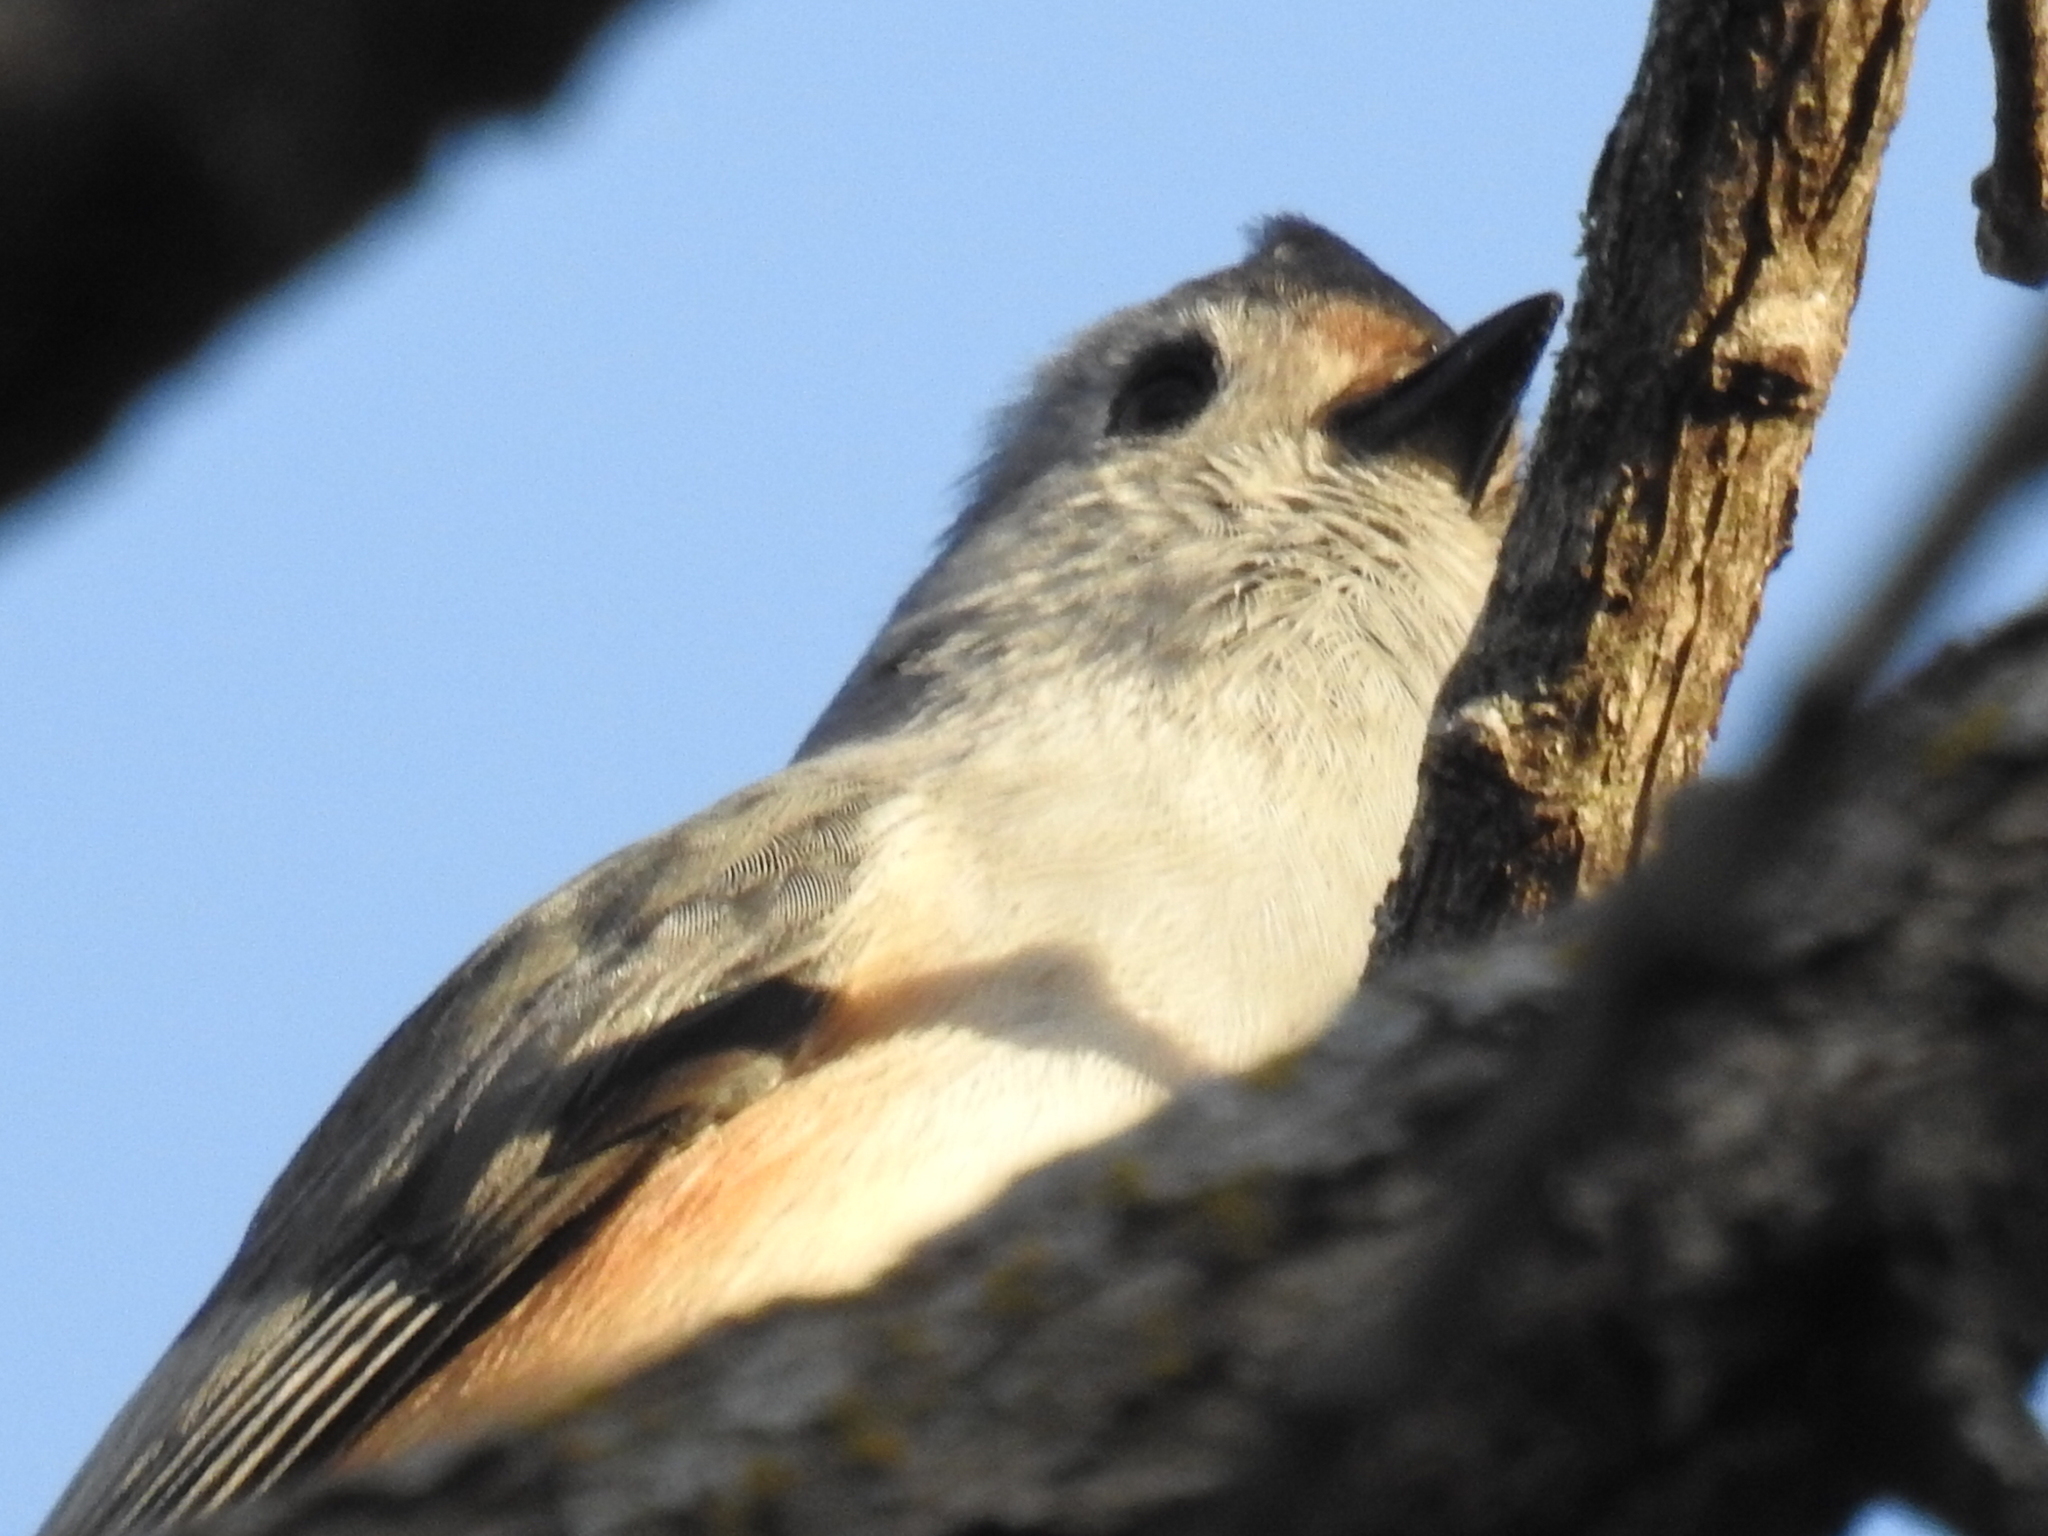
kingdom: Animalia
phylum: Chordata
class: Aves
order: Passeriformes
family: Paridae
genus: Baeolophus
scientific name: Baeolophus
